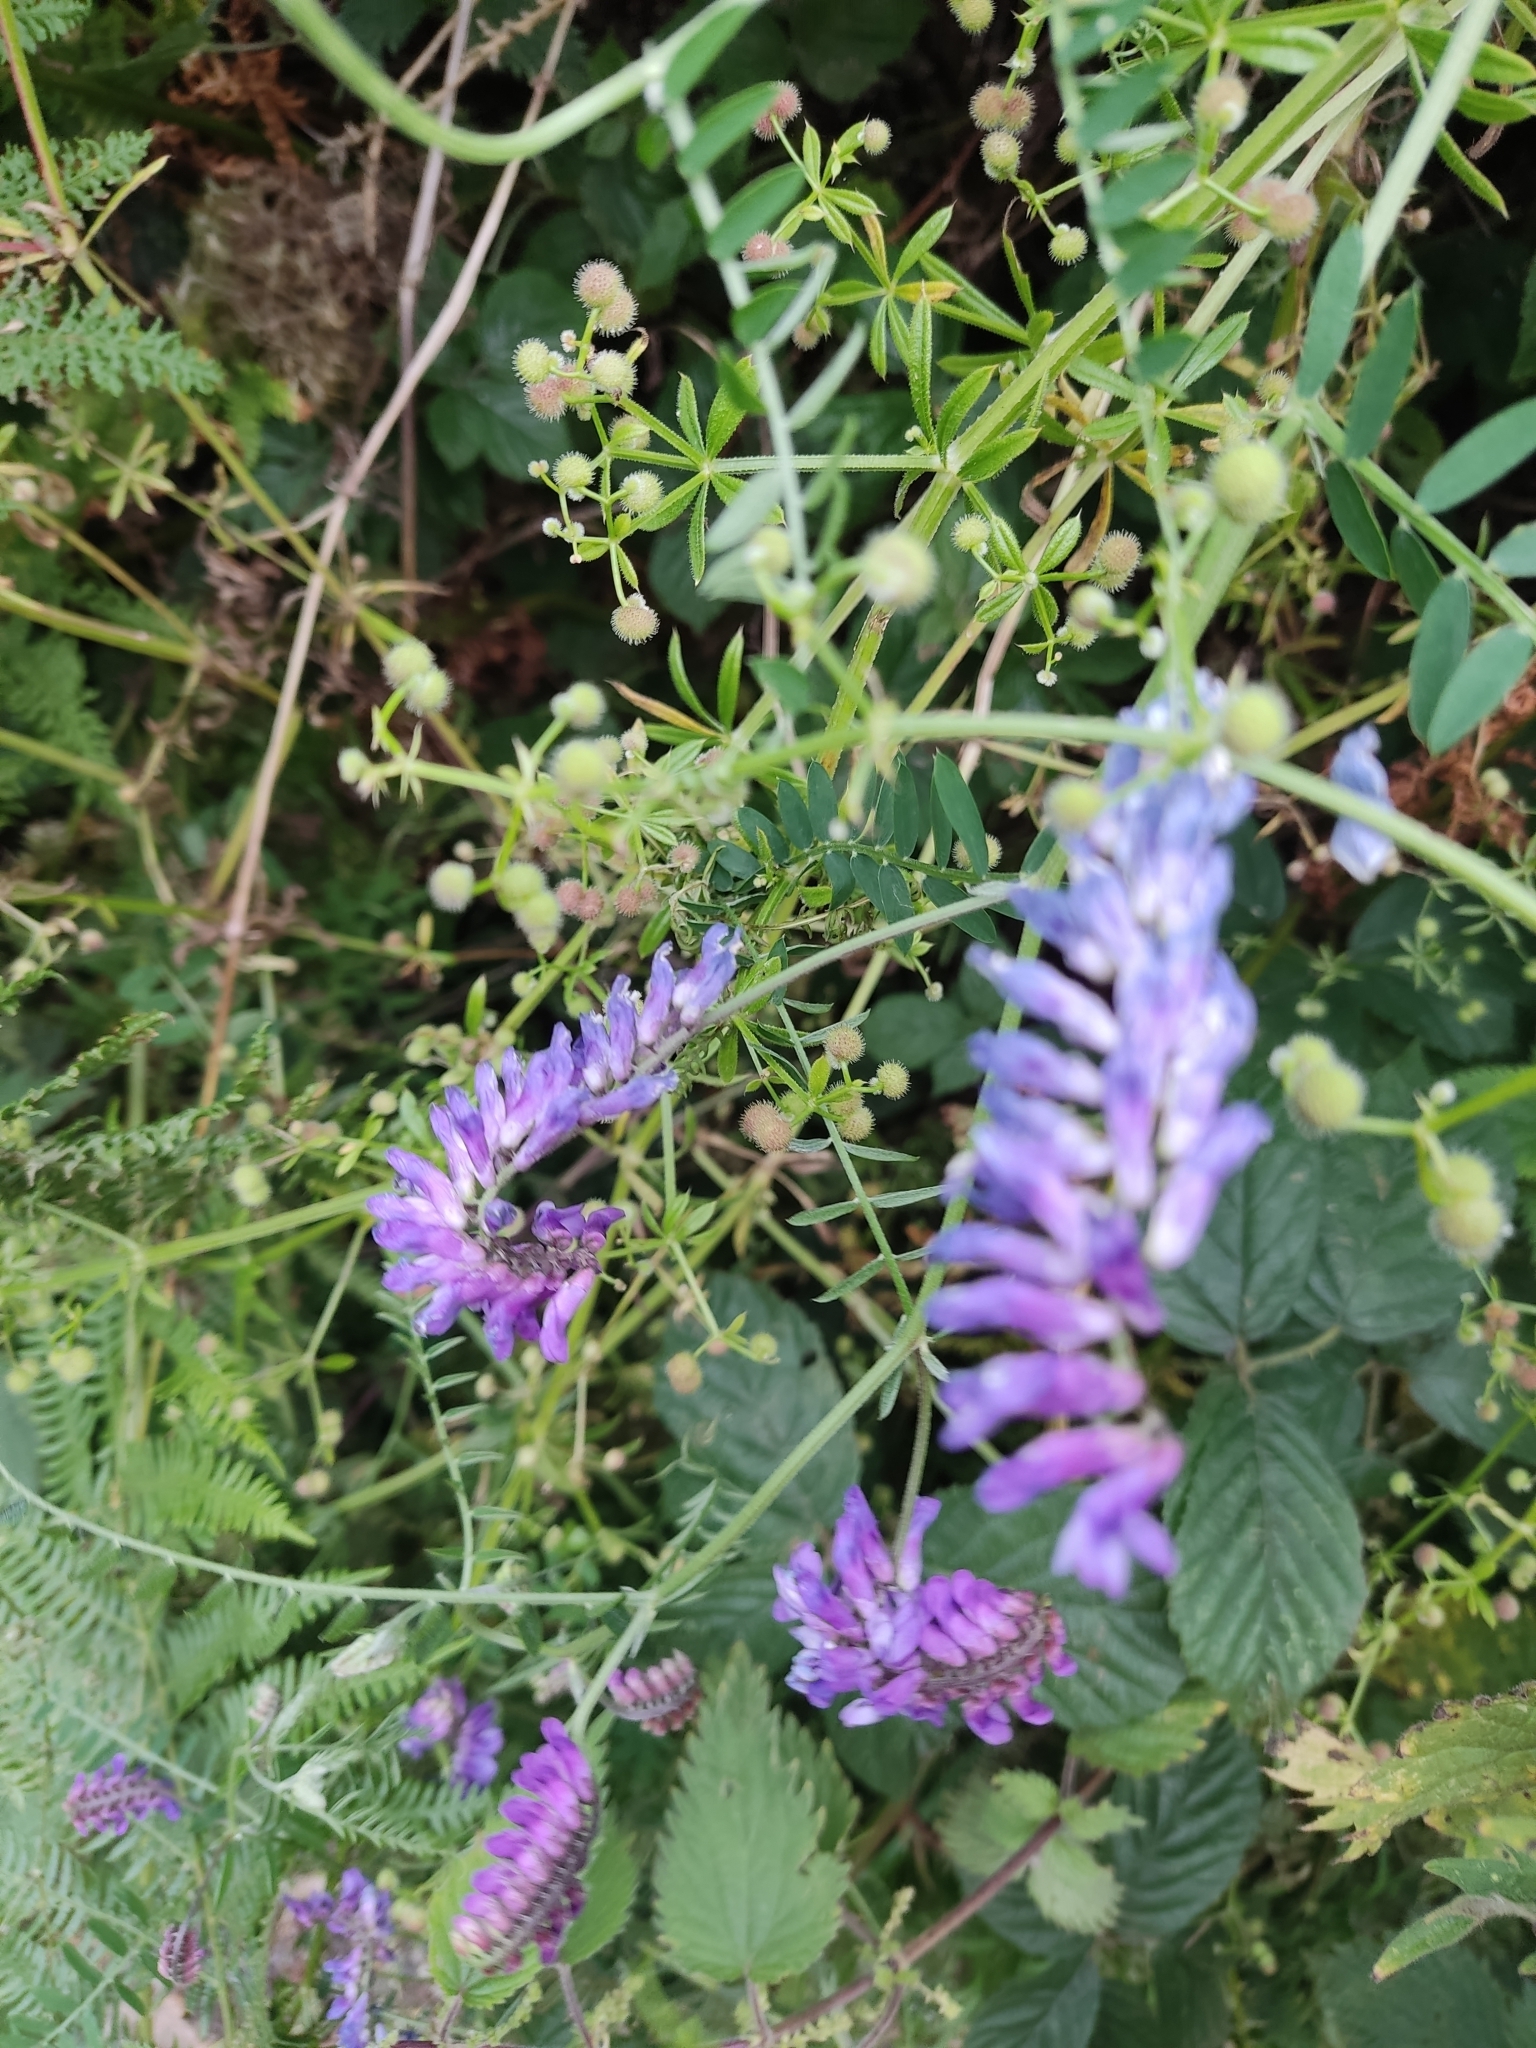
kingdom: Plantae
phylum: Tracheophyta
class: Magnoliopsida
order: Fabales
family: Fabaceae
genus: Vicia
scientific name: Vicia cracca
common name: Bird vetch
